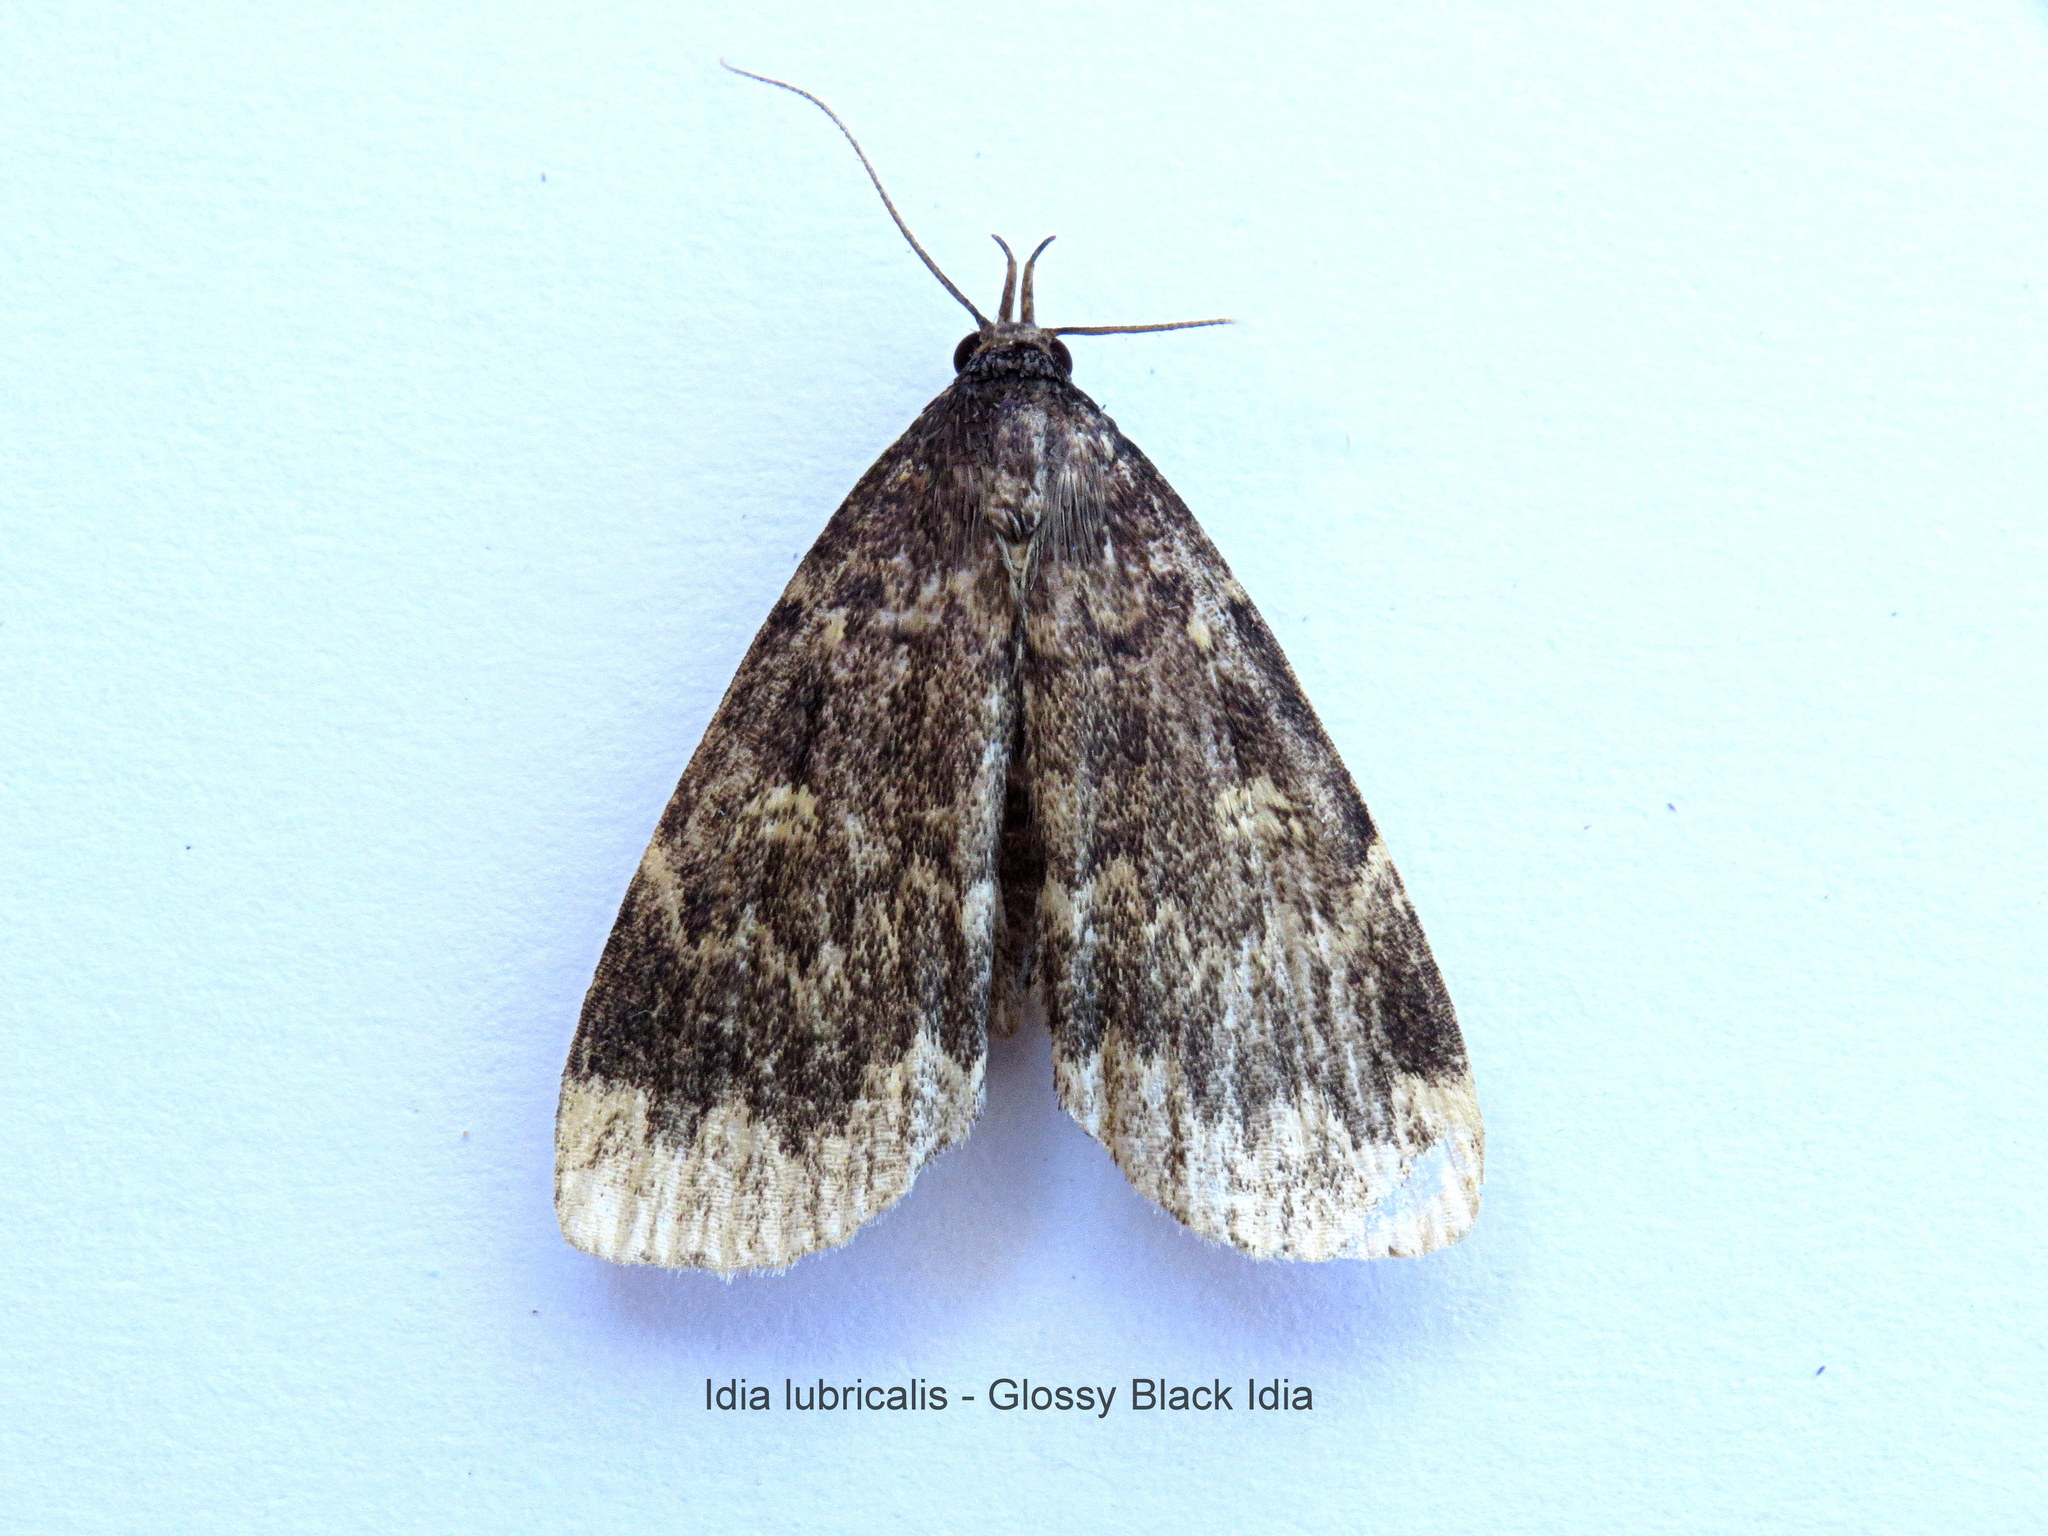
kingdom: Animalia
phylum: Arthropoda
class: Insecta
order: Lepidoptera
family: Erebidae
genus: Idia
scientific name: Idia lubricalis
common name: Twin-striped tabby
